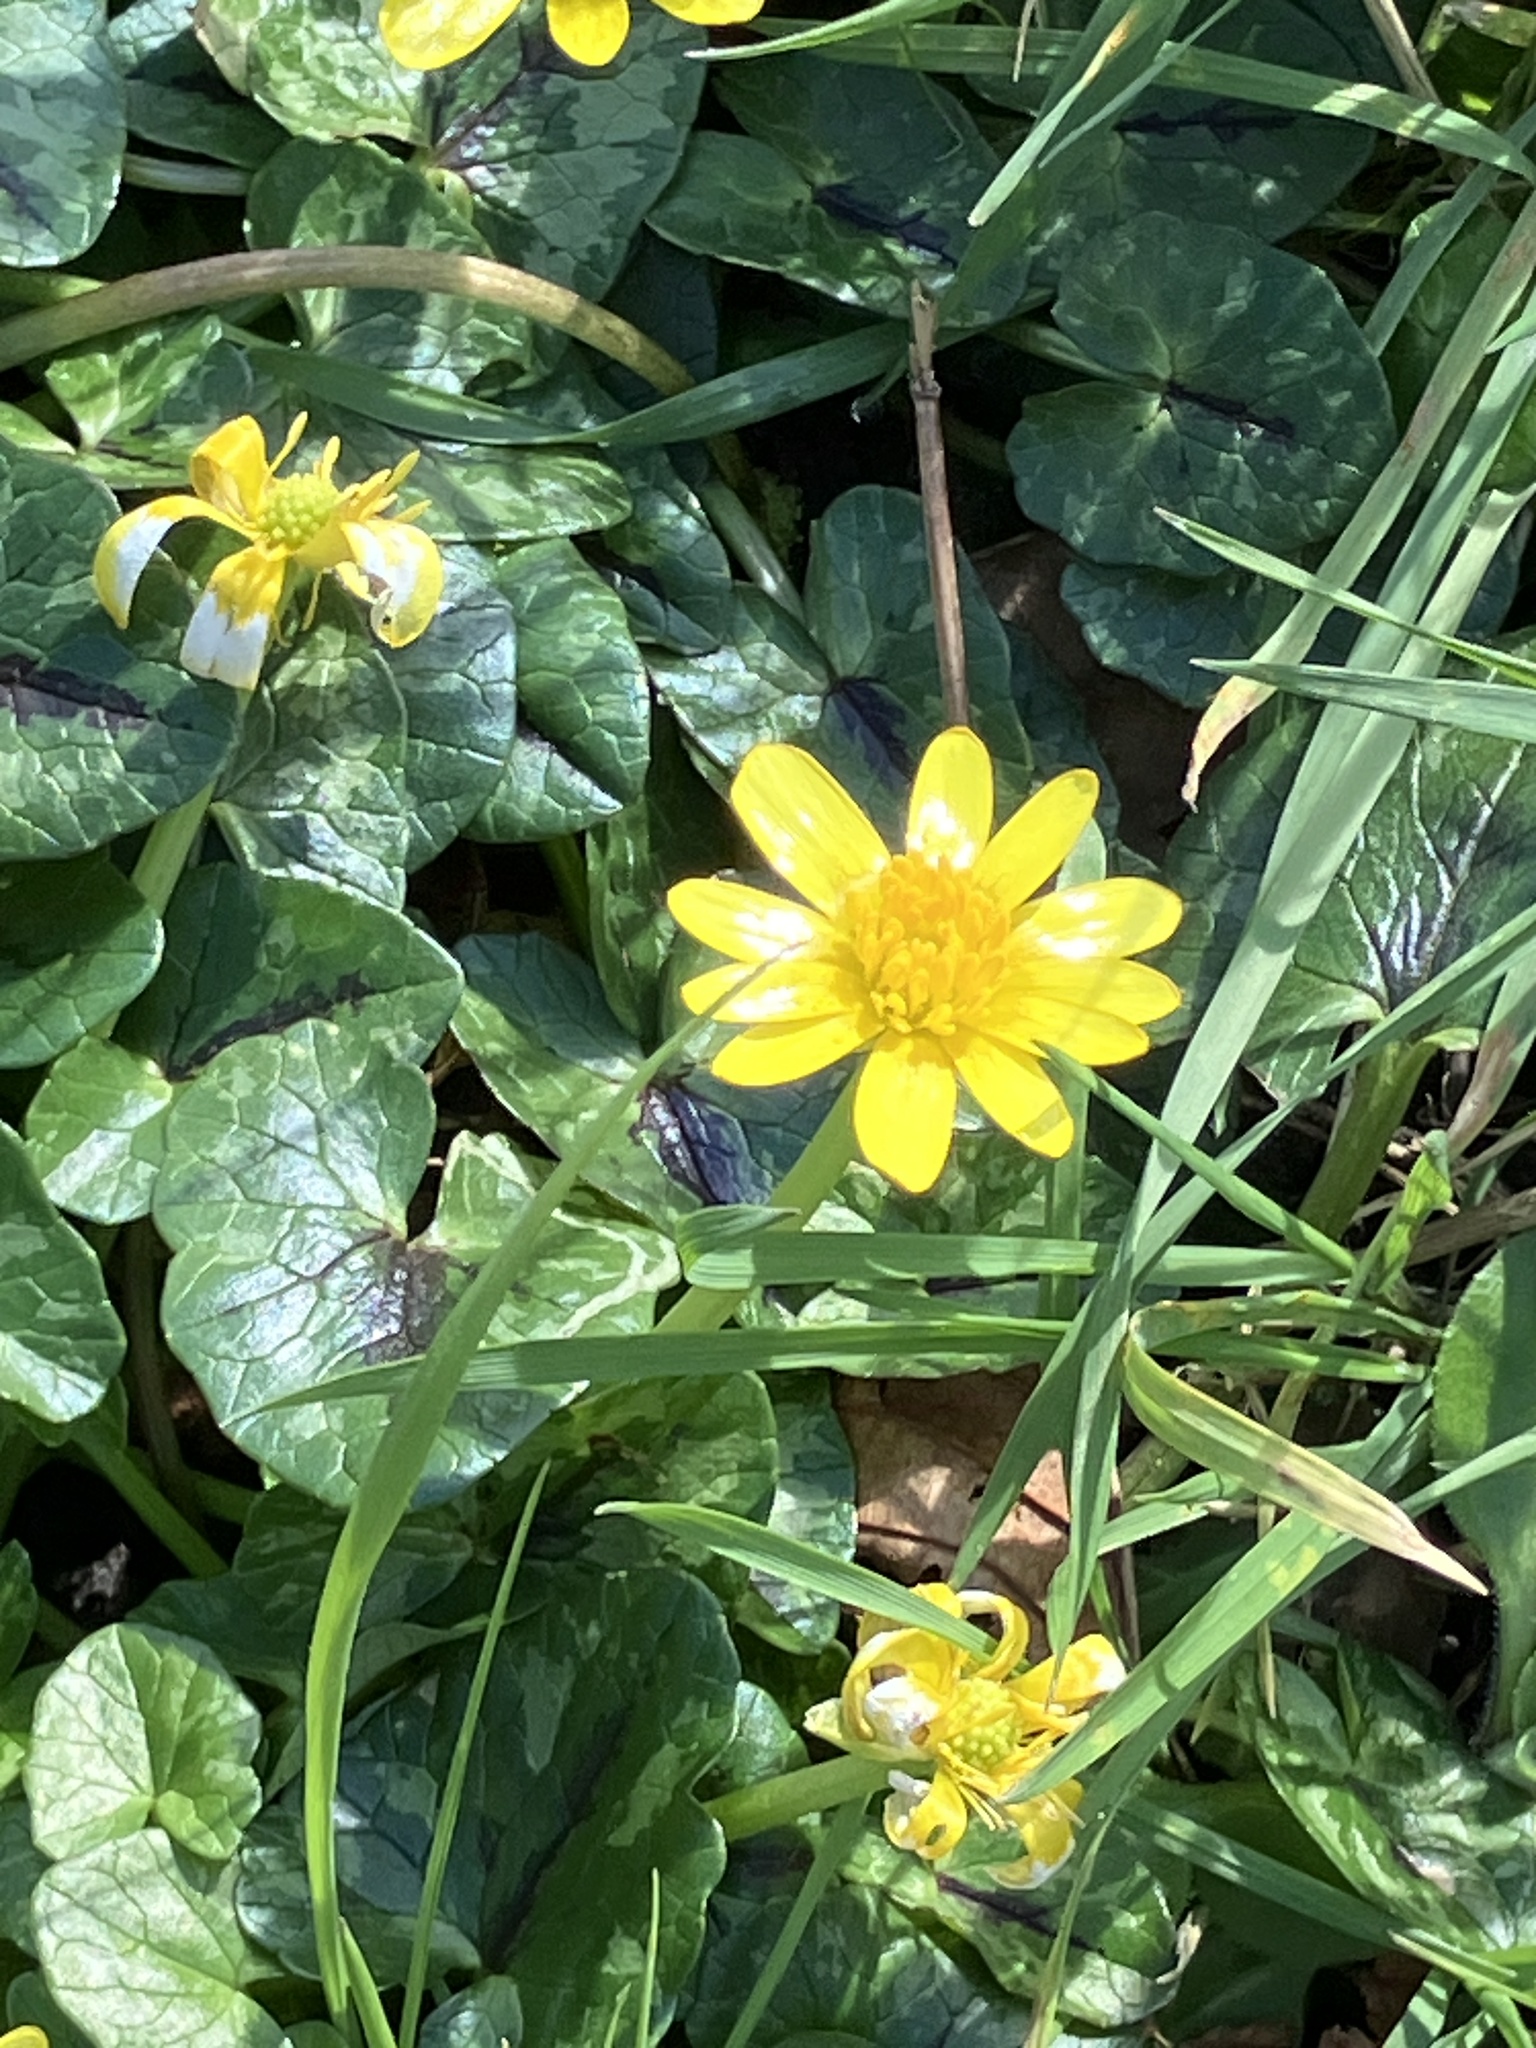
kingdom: Plantae
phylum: Tracheophyta
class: Magnoliopsida
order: Ranunculales
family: Ranunculaceae
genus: Ficaria
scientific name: Ficaria verna
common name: Lesser celandine
